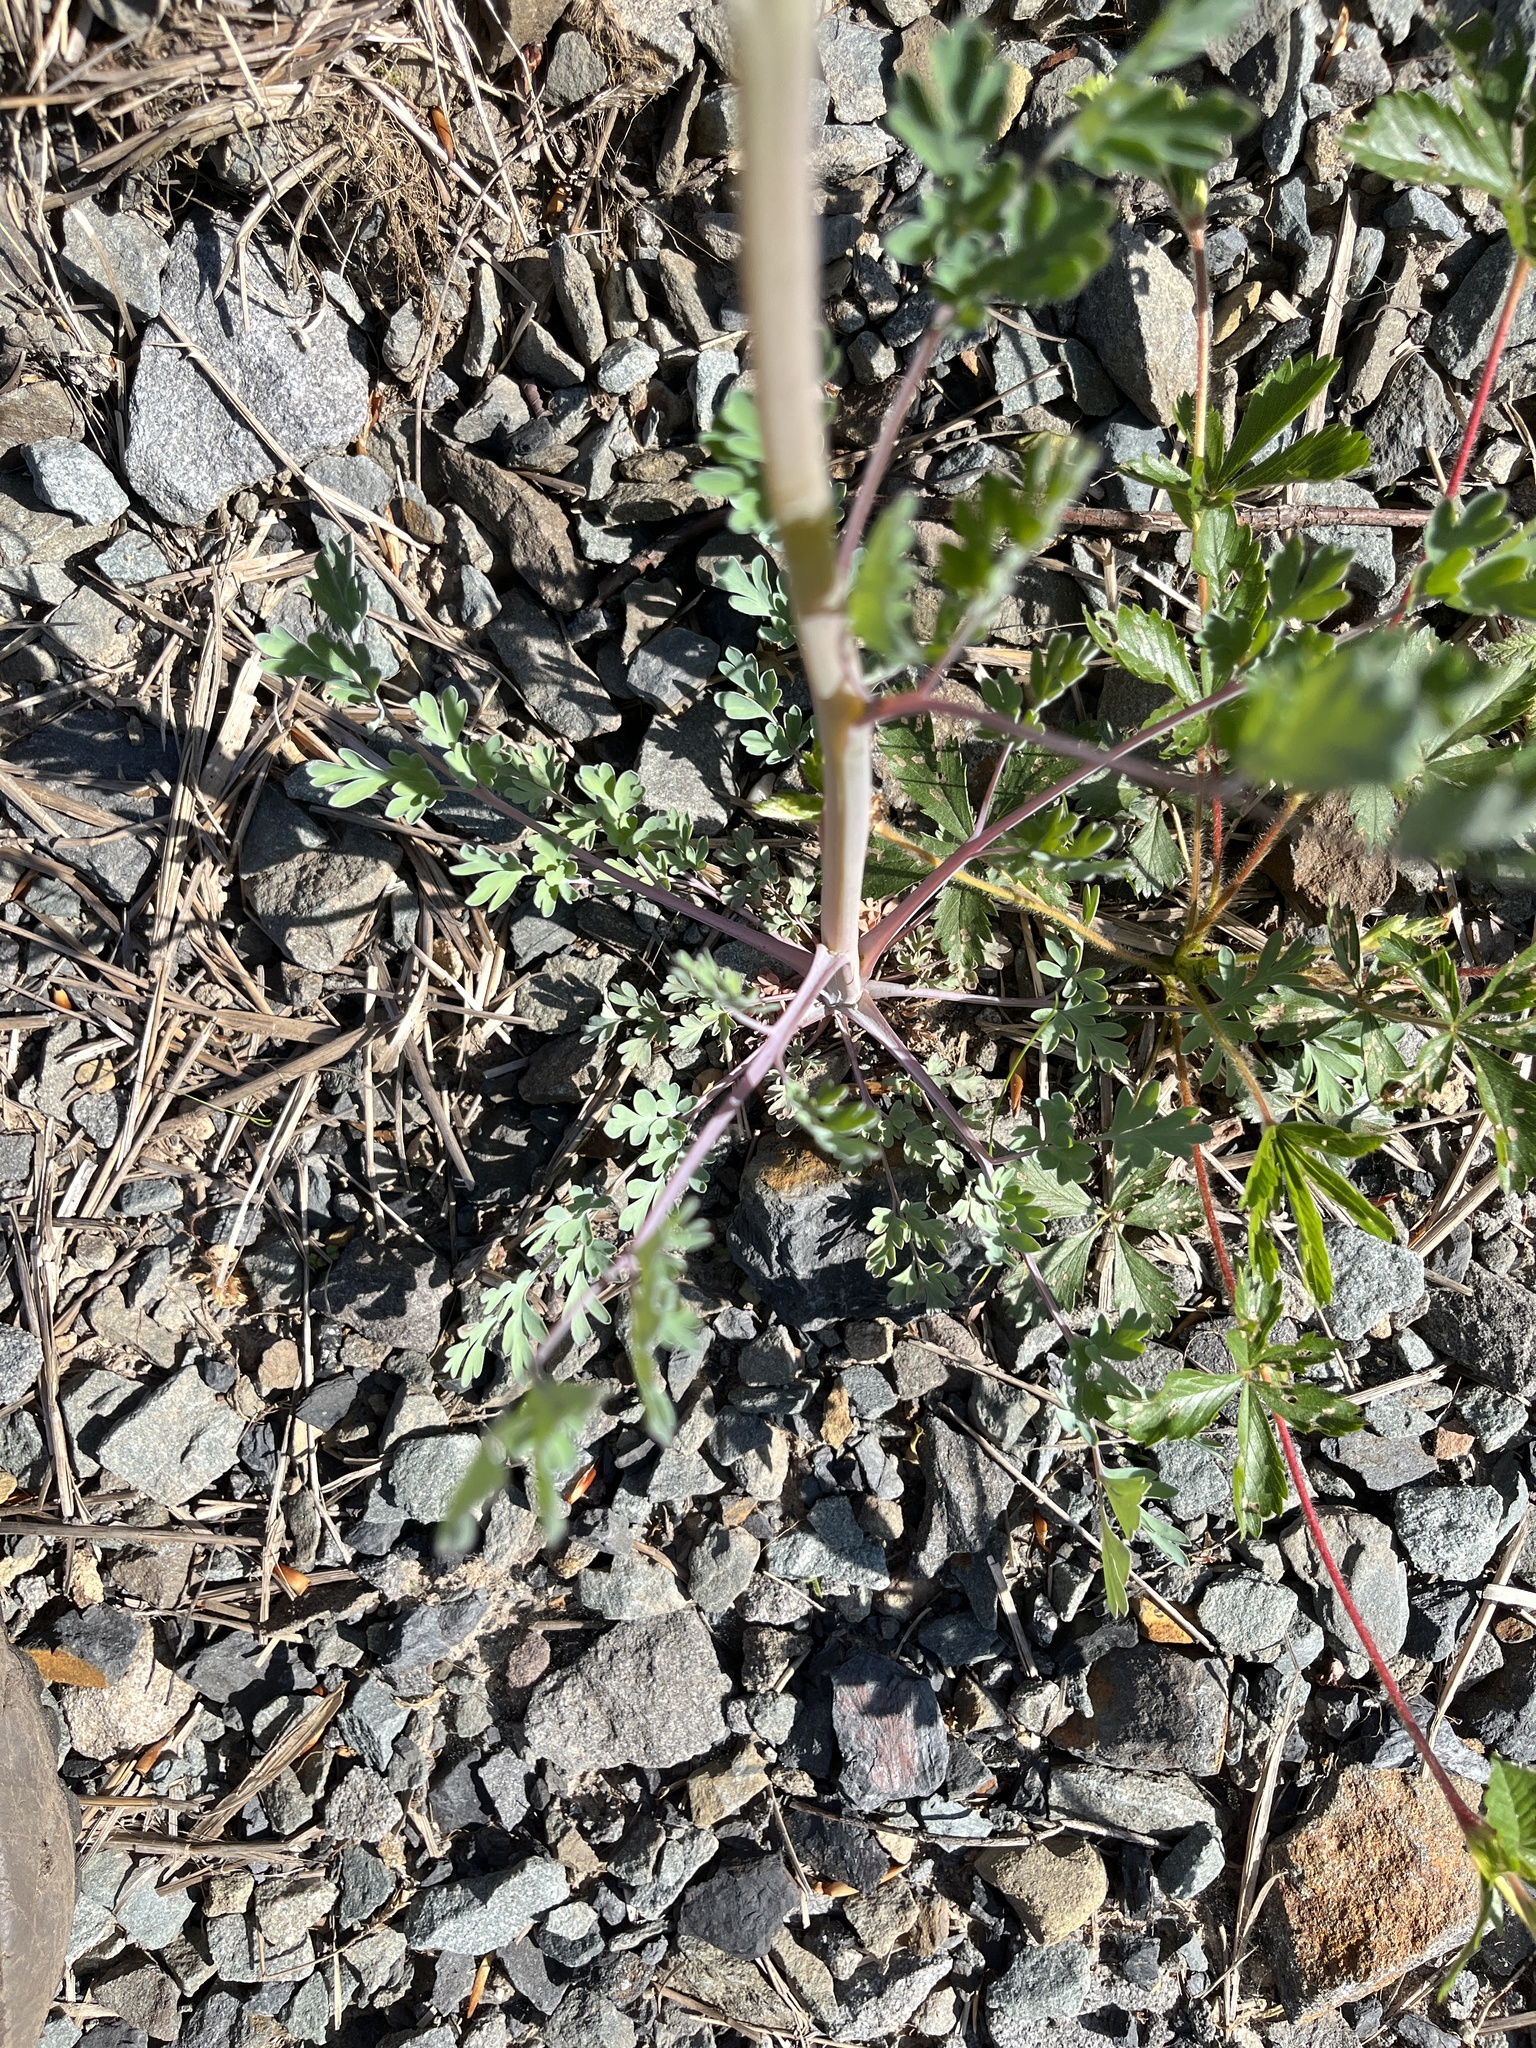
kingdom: Plantae
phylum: Tracheophyta
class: Magnoliopsida
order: Ranunculales
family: Papaveraceae
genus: Capnoides
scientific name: Capnoides sempervirens
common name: Rock harlequin
